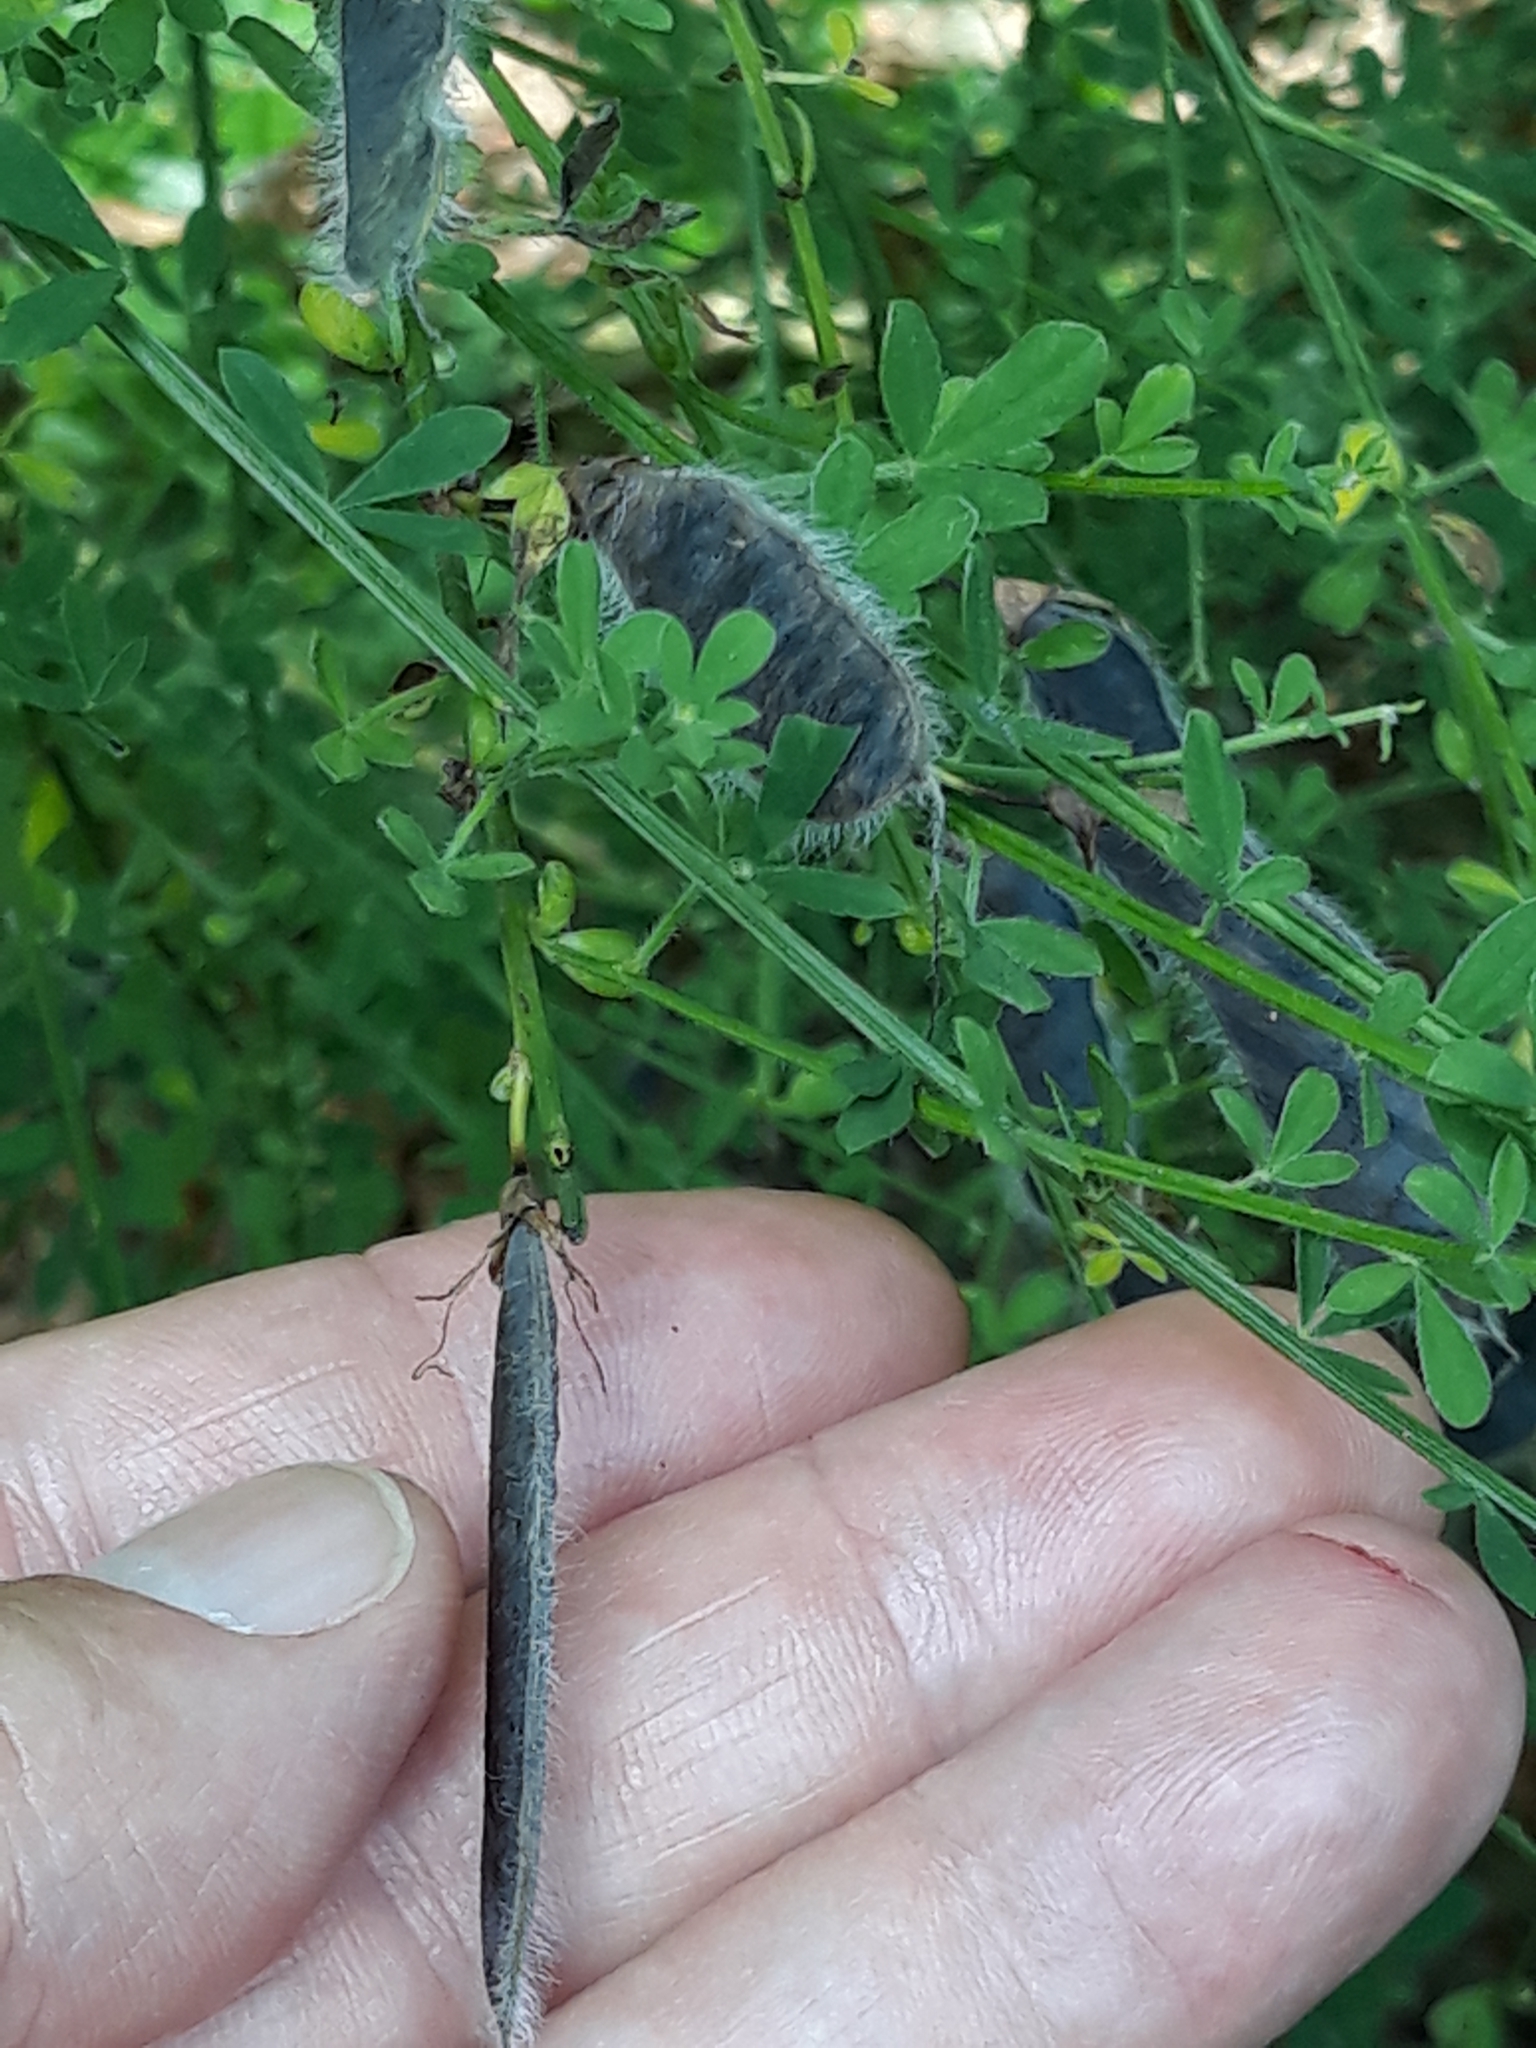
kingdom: Plantae
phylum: Tracheophyta
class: Magnoliopsida
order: Fabales
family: Fabaceae
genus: Cytisus
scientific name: Cytisus scoparius
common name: Scotch broom
